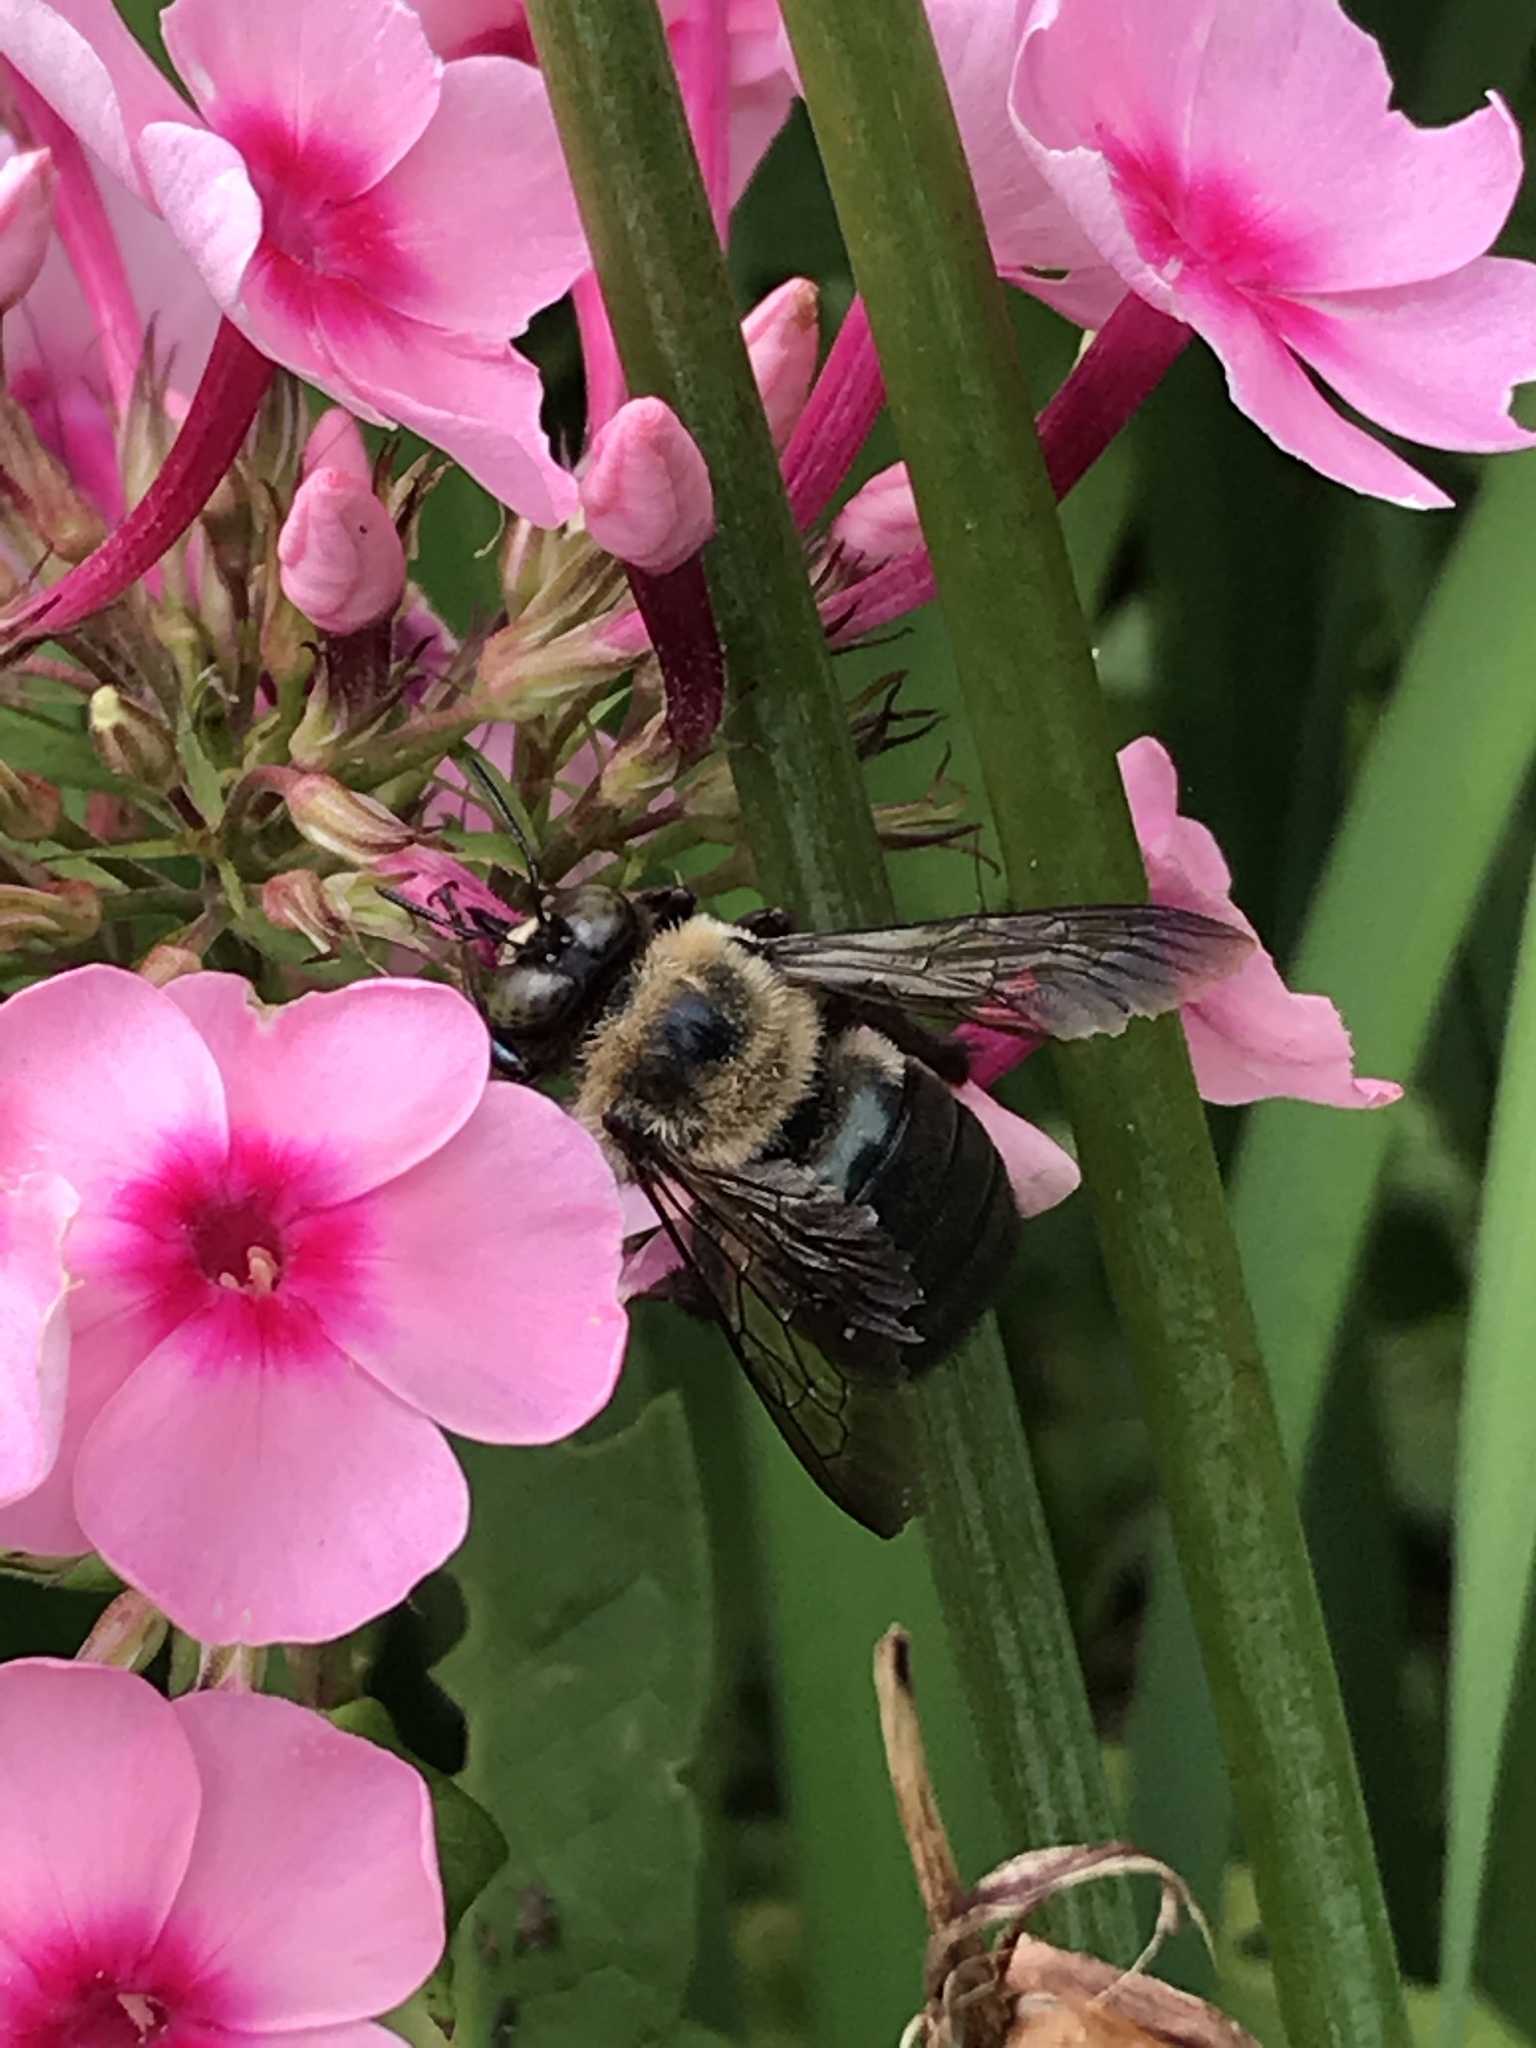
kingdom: Animalia
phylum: Arthropoda
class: Insecta
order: Hymenoptera
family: Apidae
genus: Xylocopa
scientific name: Xylocopa virginica
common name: Carpenter bee
